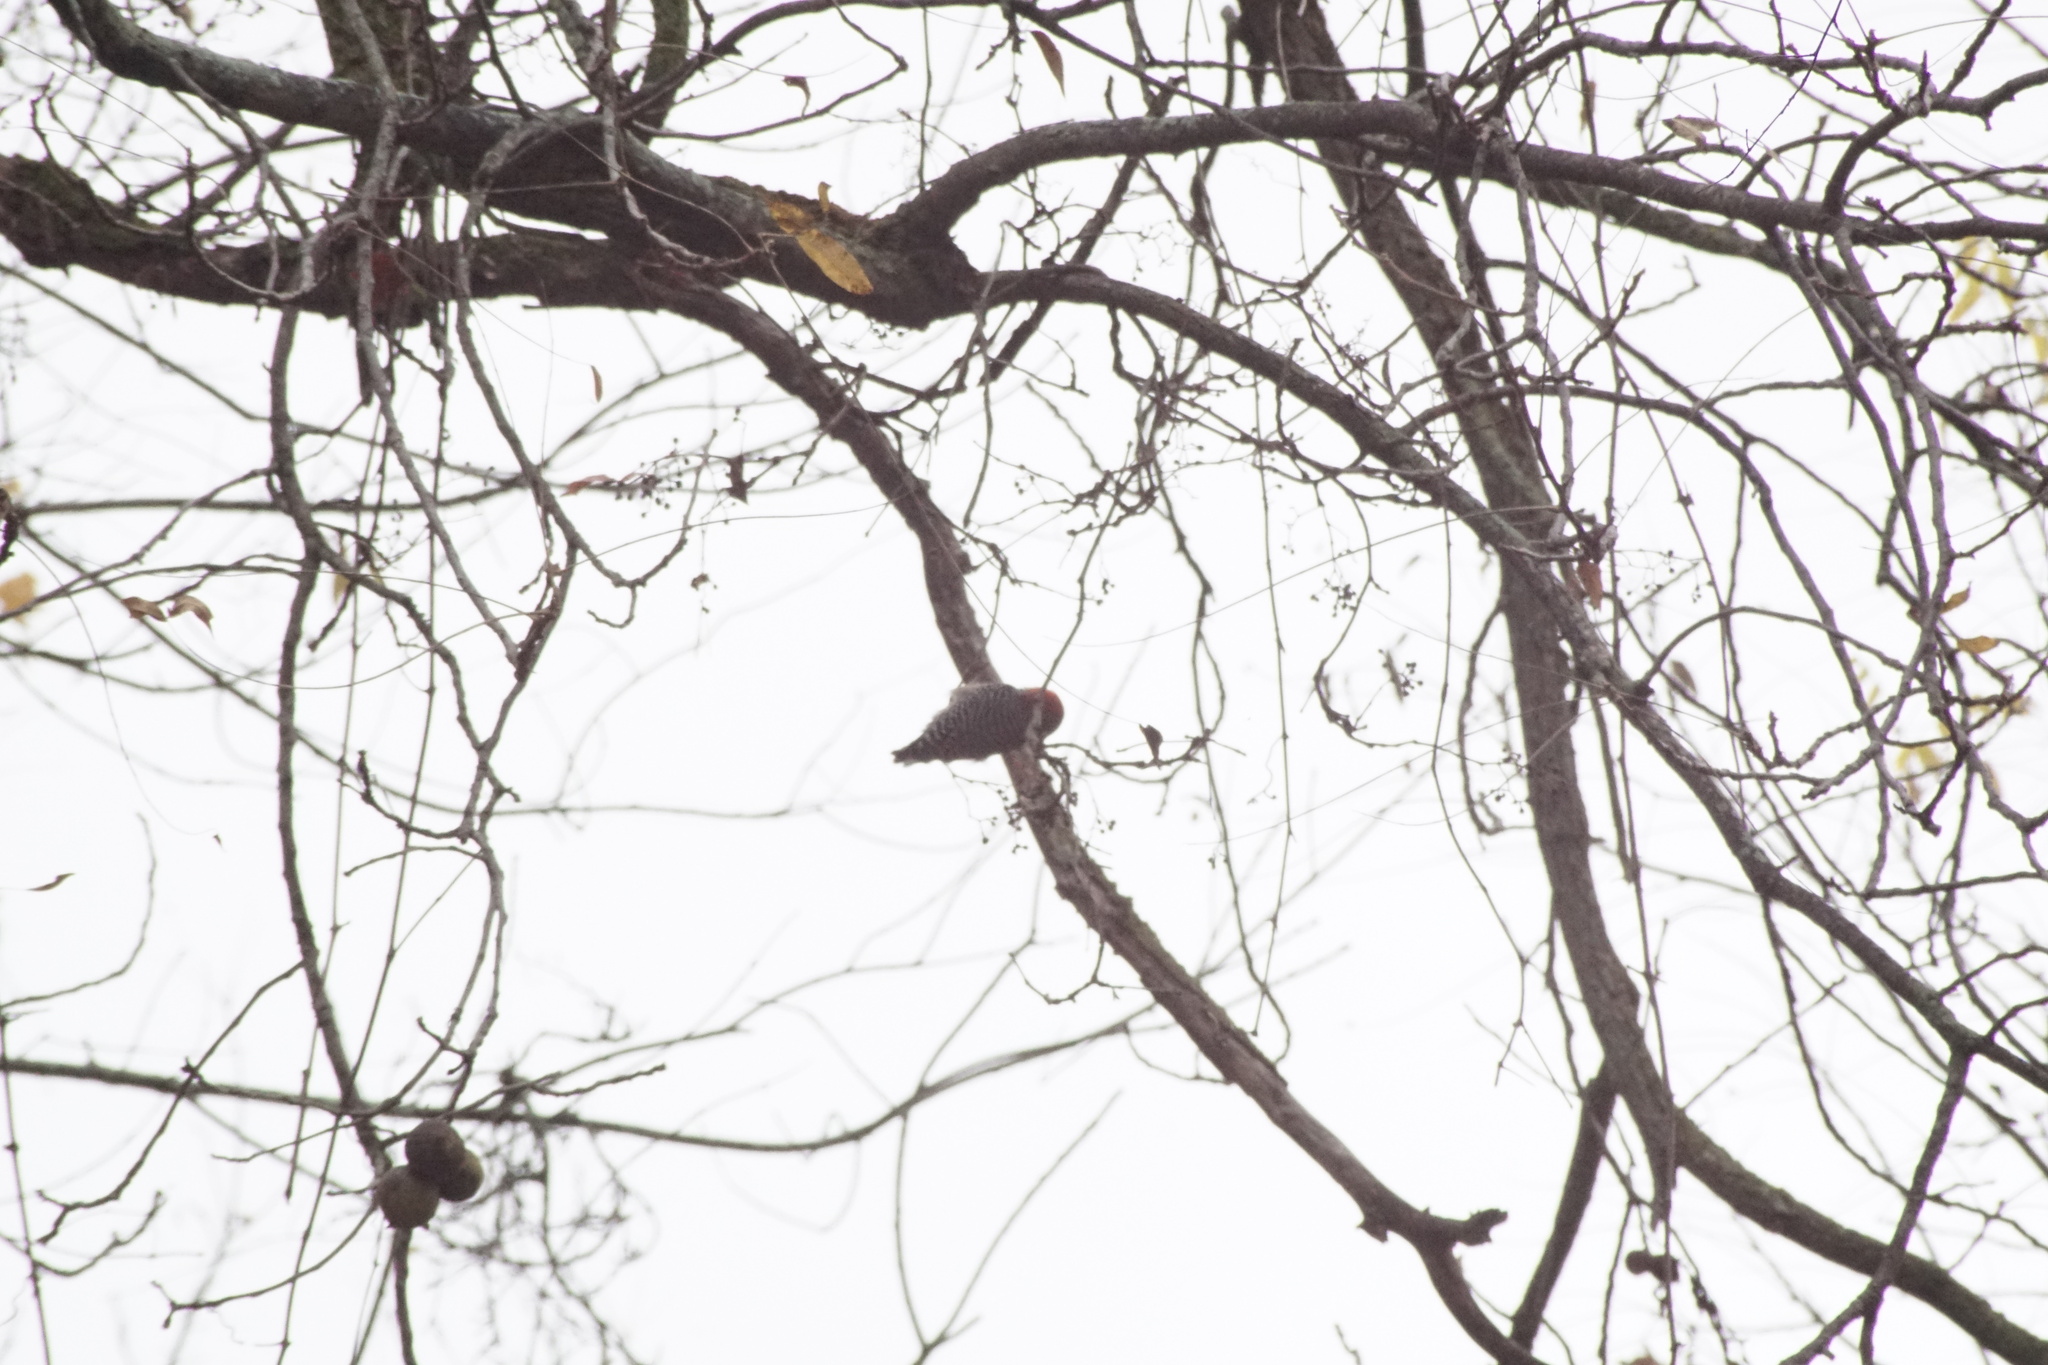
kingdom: Animalia
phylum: Chordata
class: Aves
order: Piciformes
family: Picidae
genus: Melanerpes
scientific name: Melanerpes carolinus
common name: Red-bellied woodpecker
